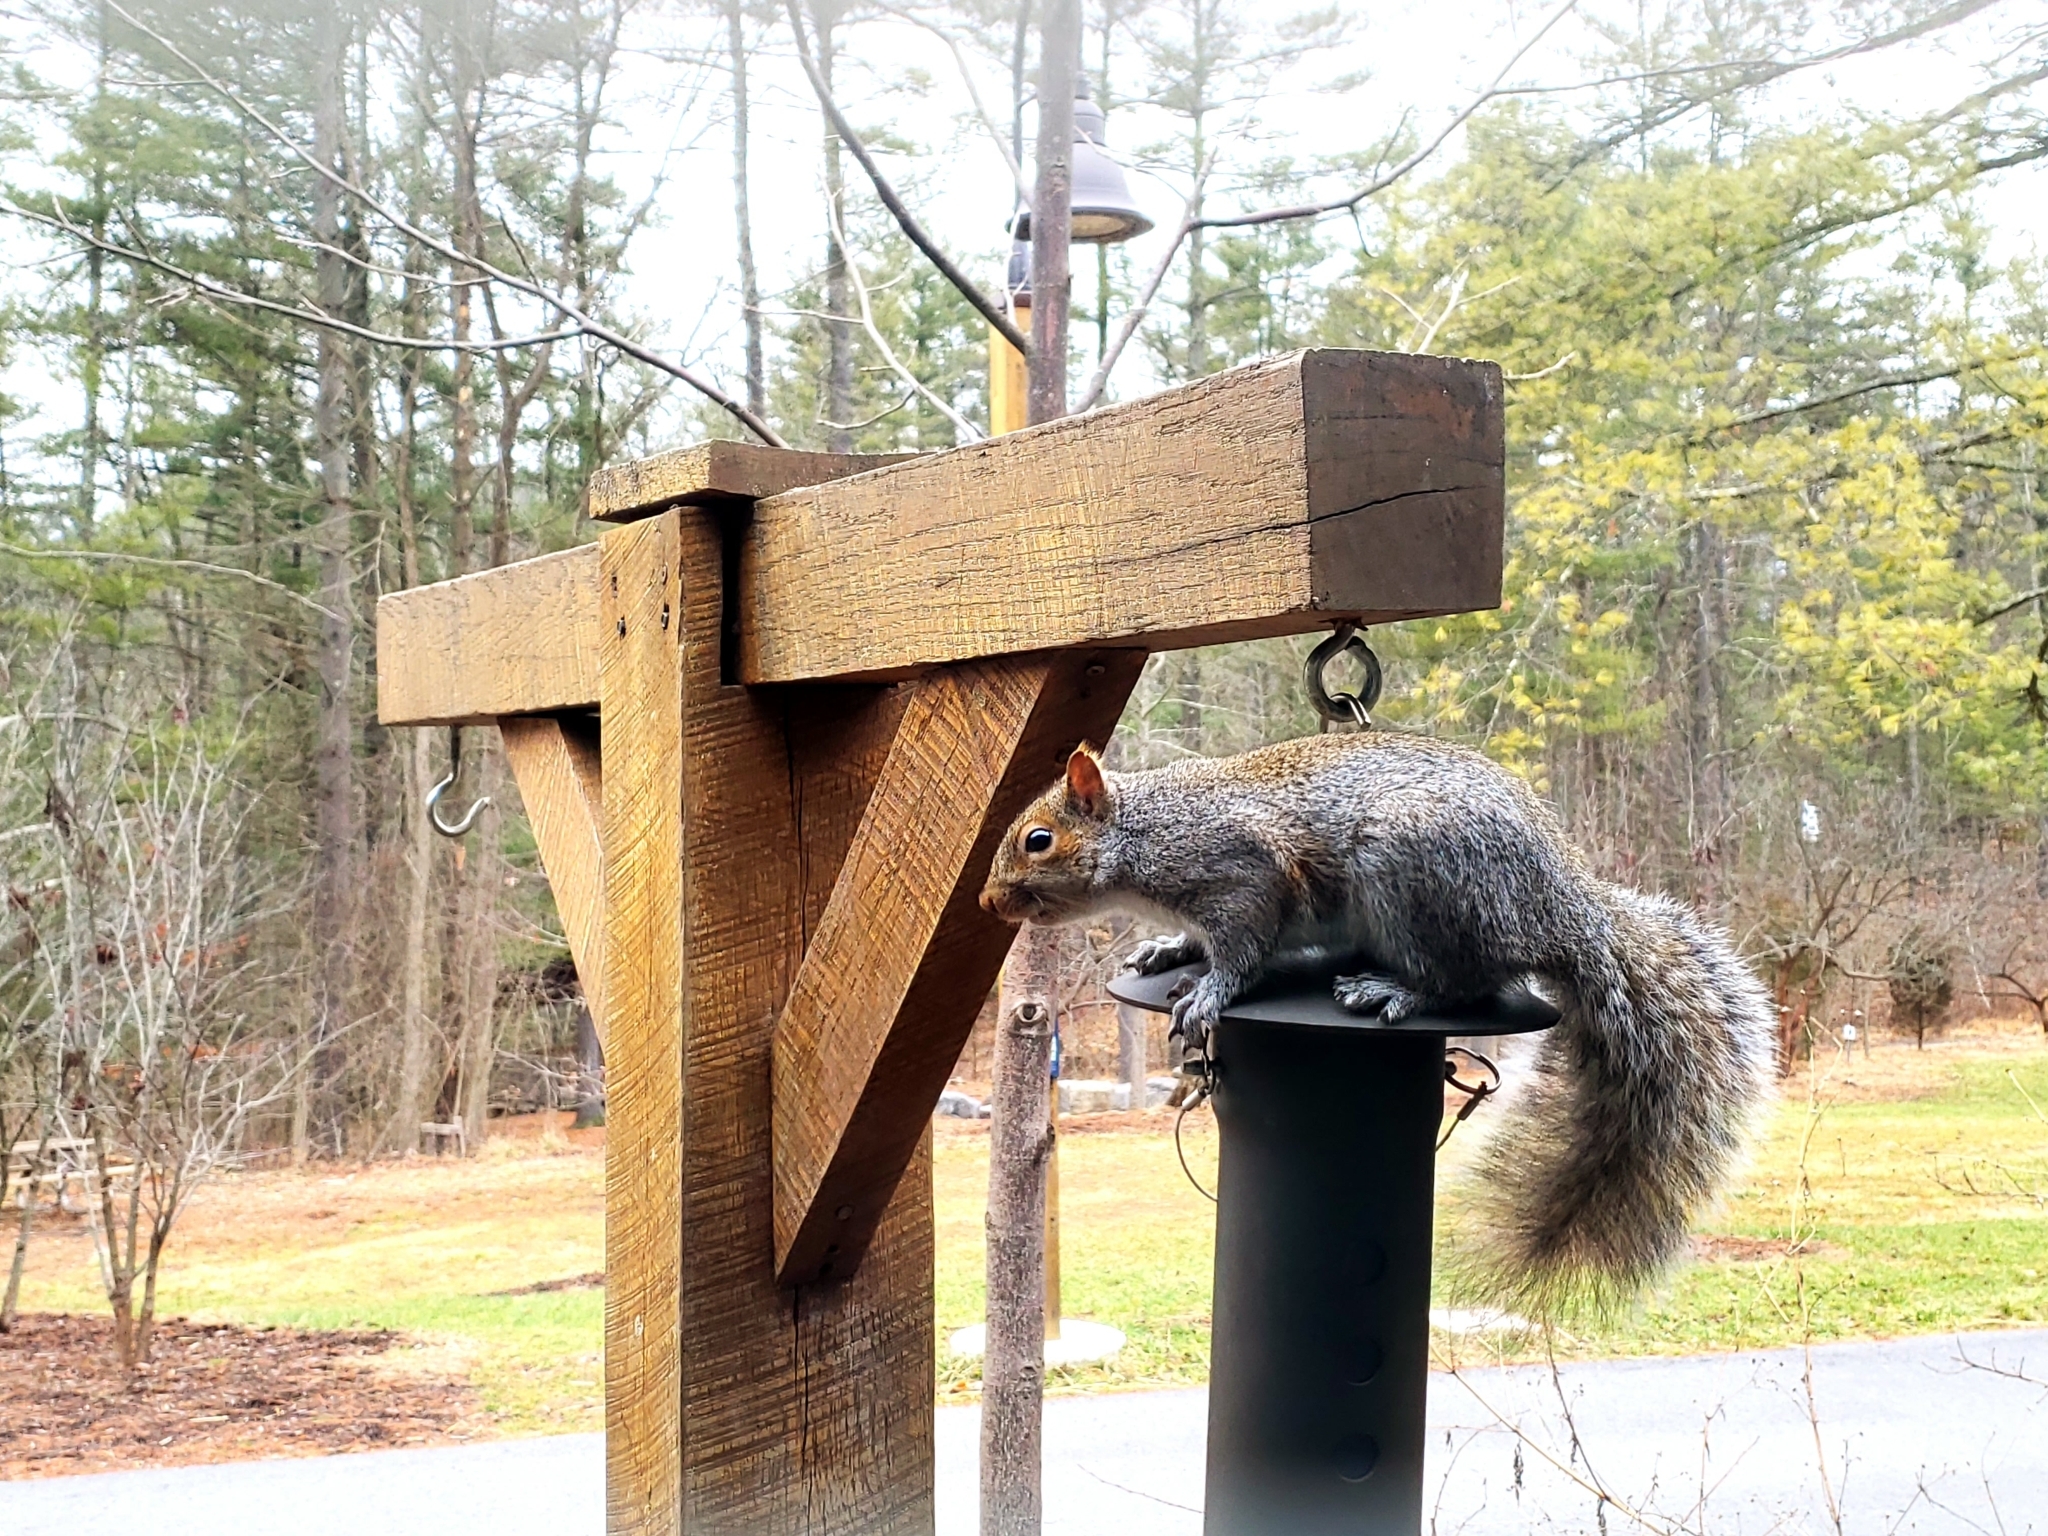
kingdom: Animalia
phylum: Chordata
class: Mammalia
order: Rodentia
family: Sciuridae
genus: Sciurus
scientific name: Sciurus carolinensis
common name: Eastern gray squirrel
